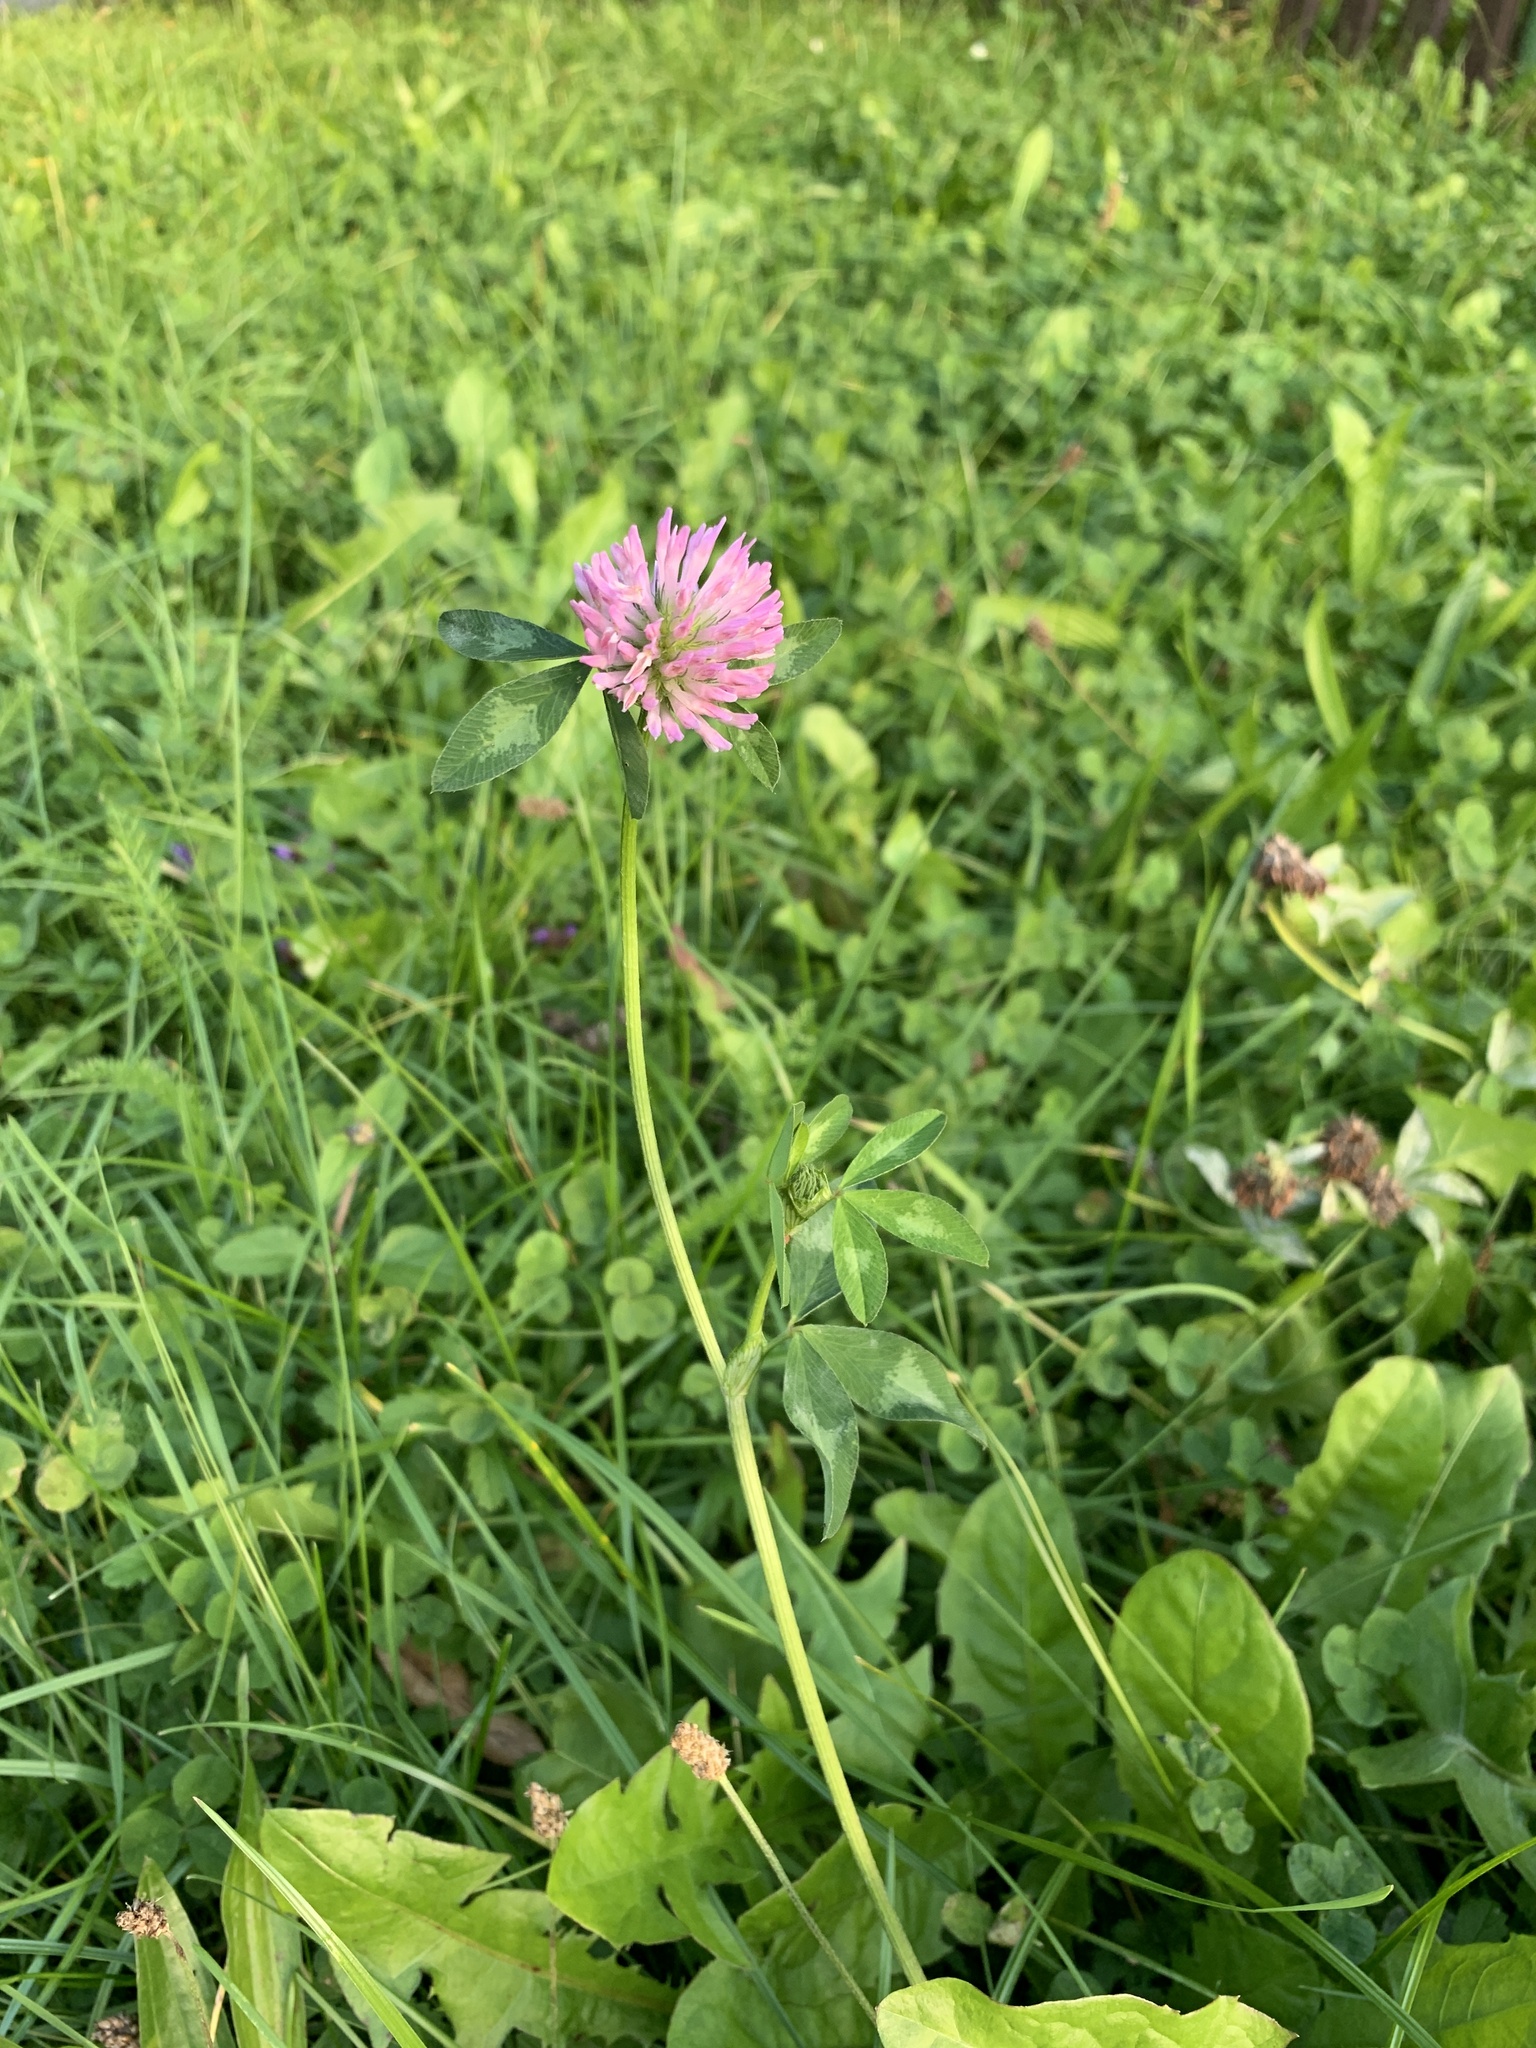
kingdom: Plantae
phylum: Tracheophyta
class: Magnoliopsida
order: Fabales
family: Fabaceae
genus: Trifolium
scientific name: Trifolium pratense
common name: Red clover
